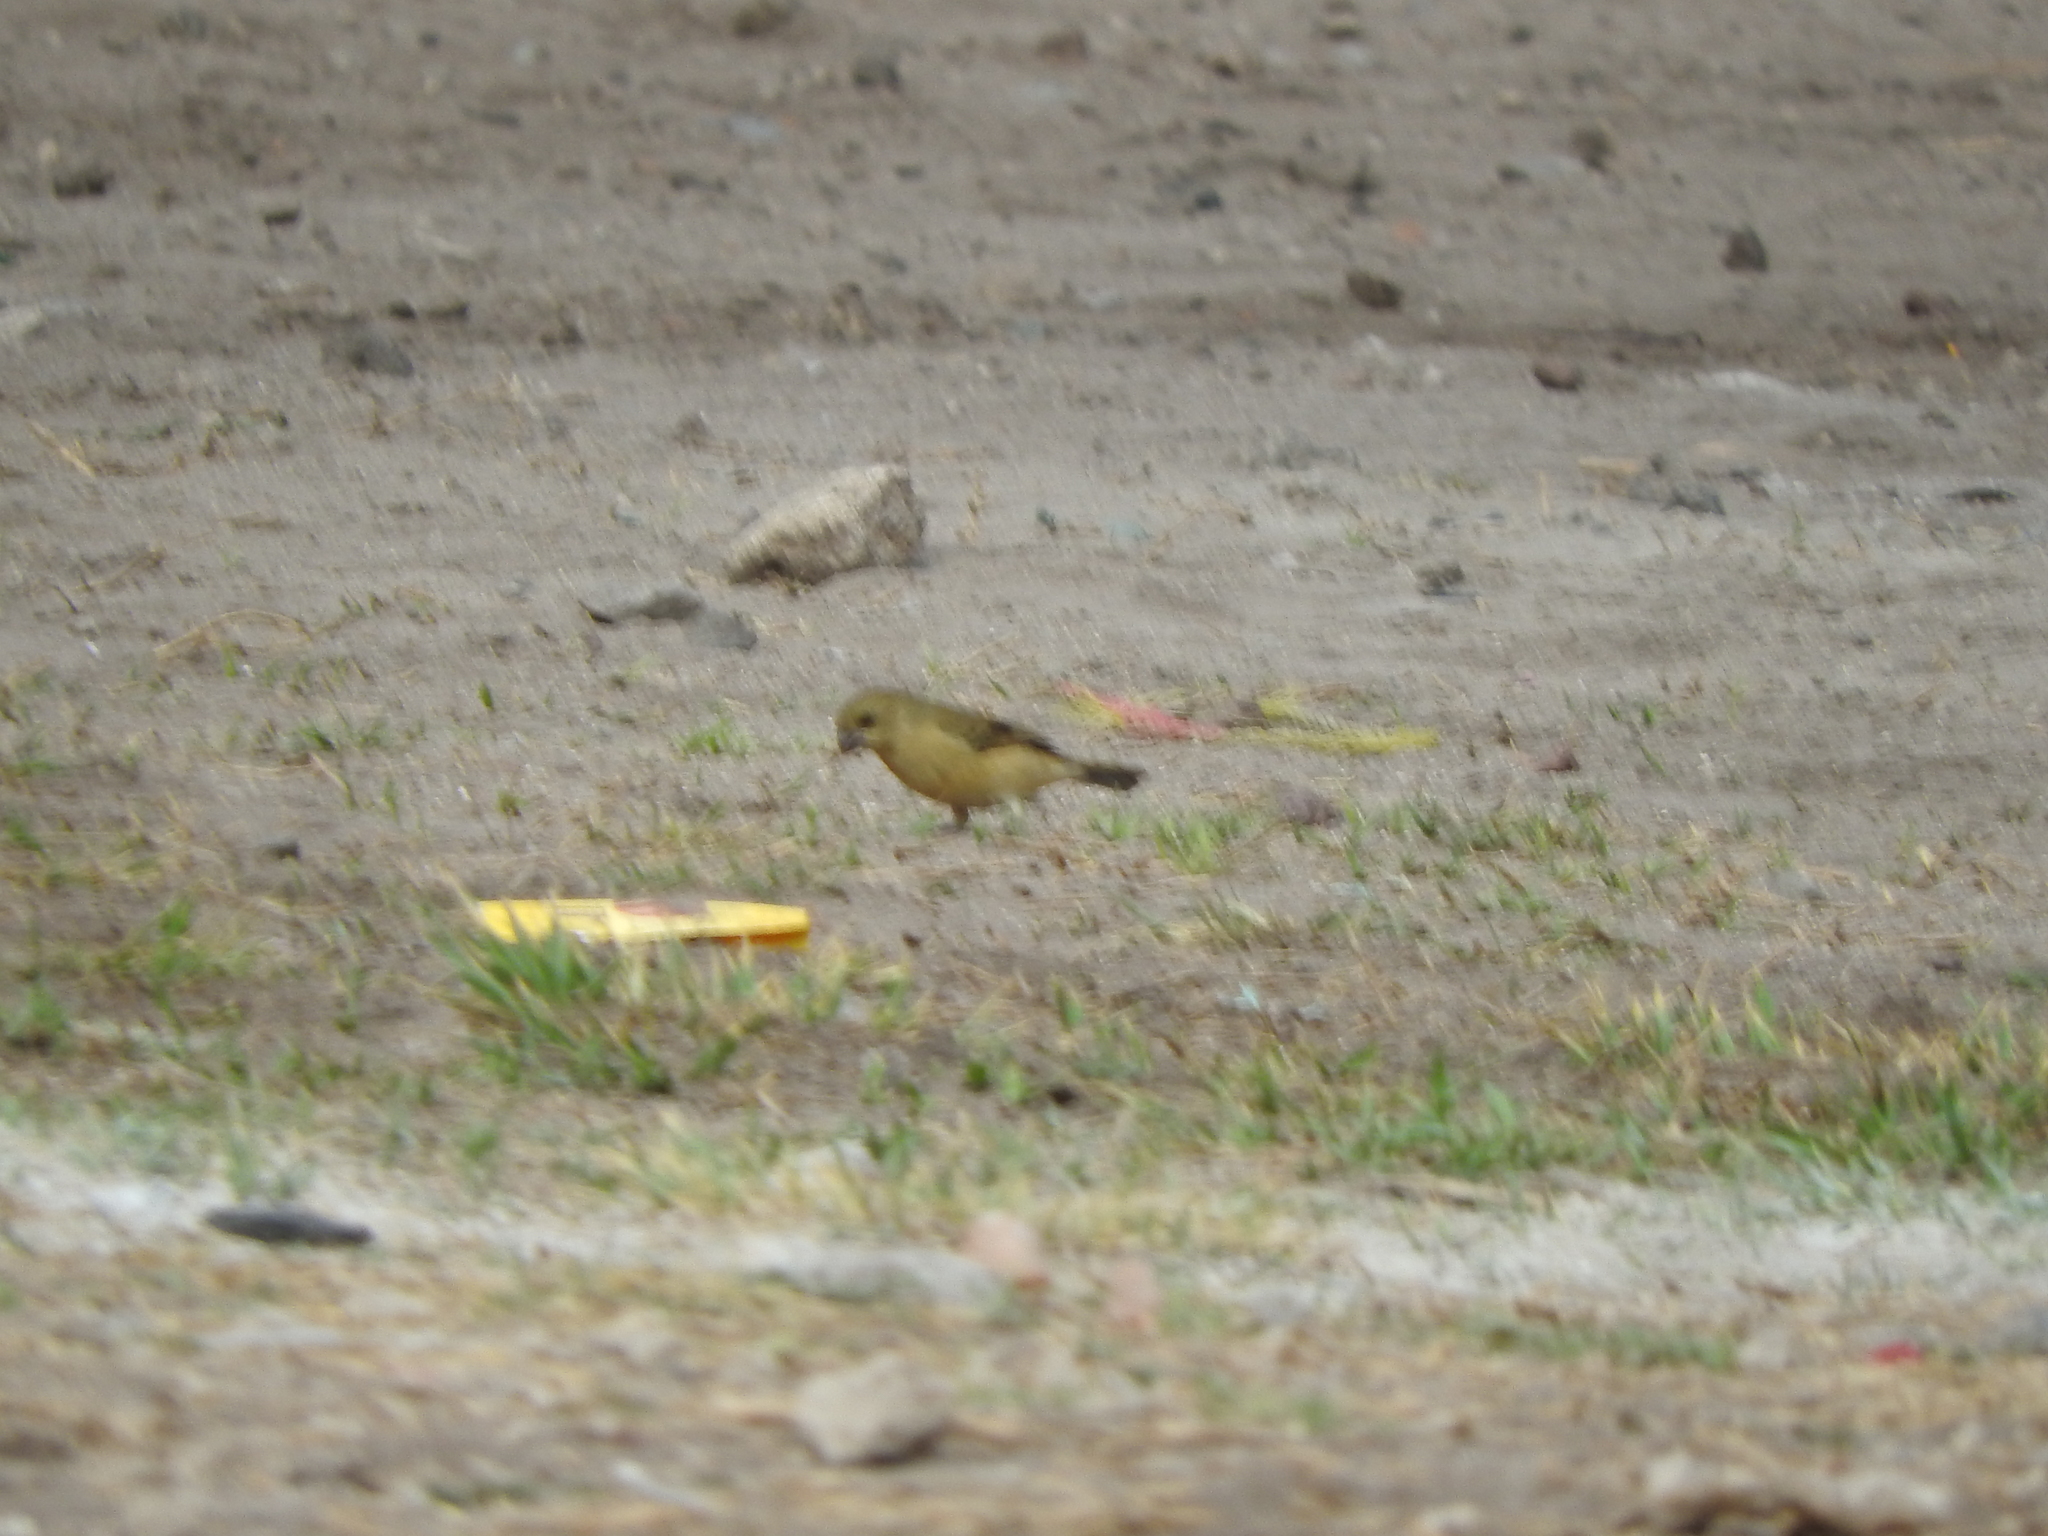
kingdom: Animalia
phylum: Chordata
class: Aves
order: Passeriformes
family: Thraupidae
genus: Sporophila
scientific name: Sporophila torqueola
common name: White-collared seedeater
